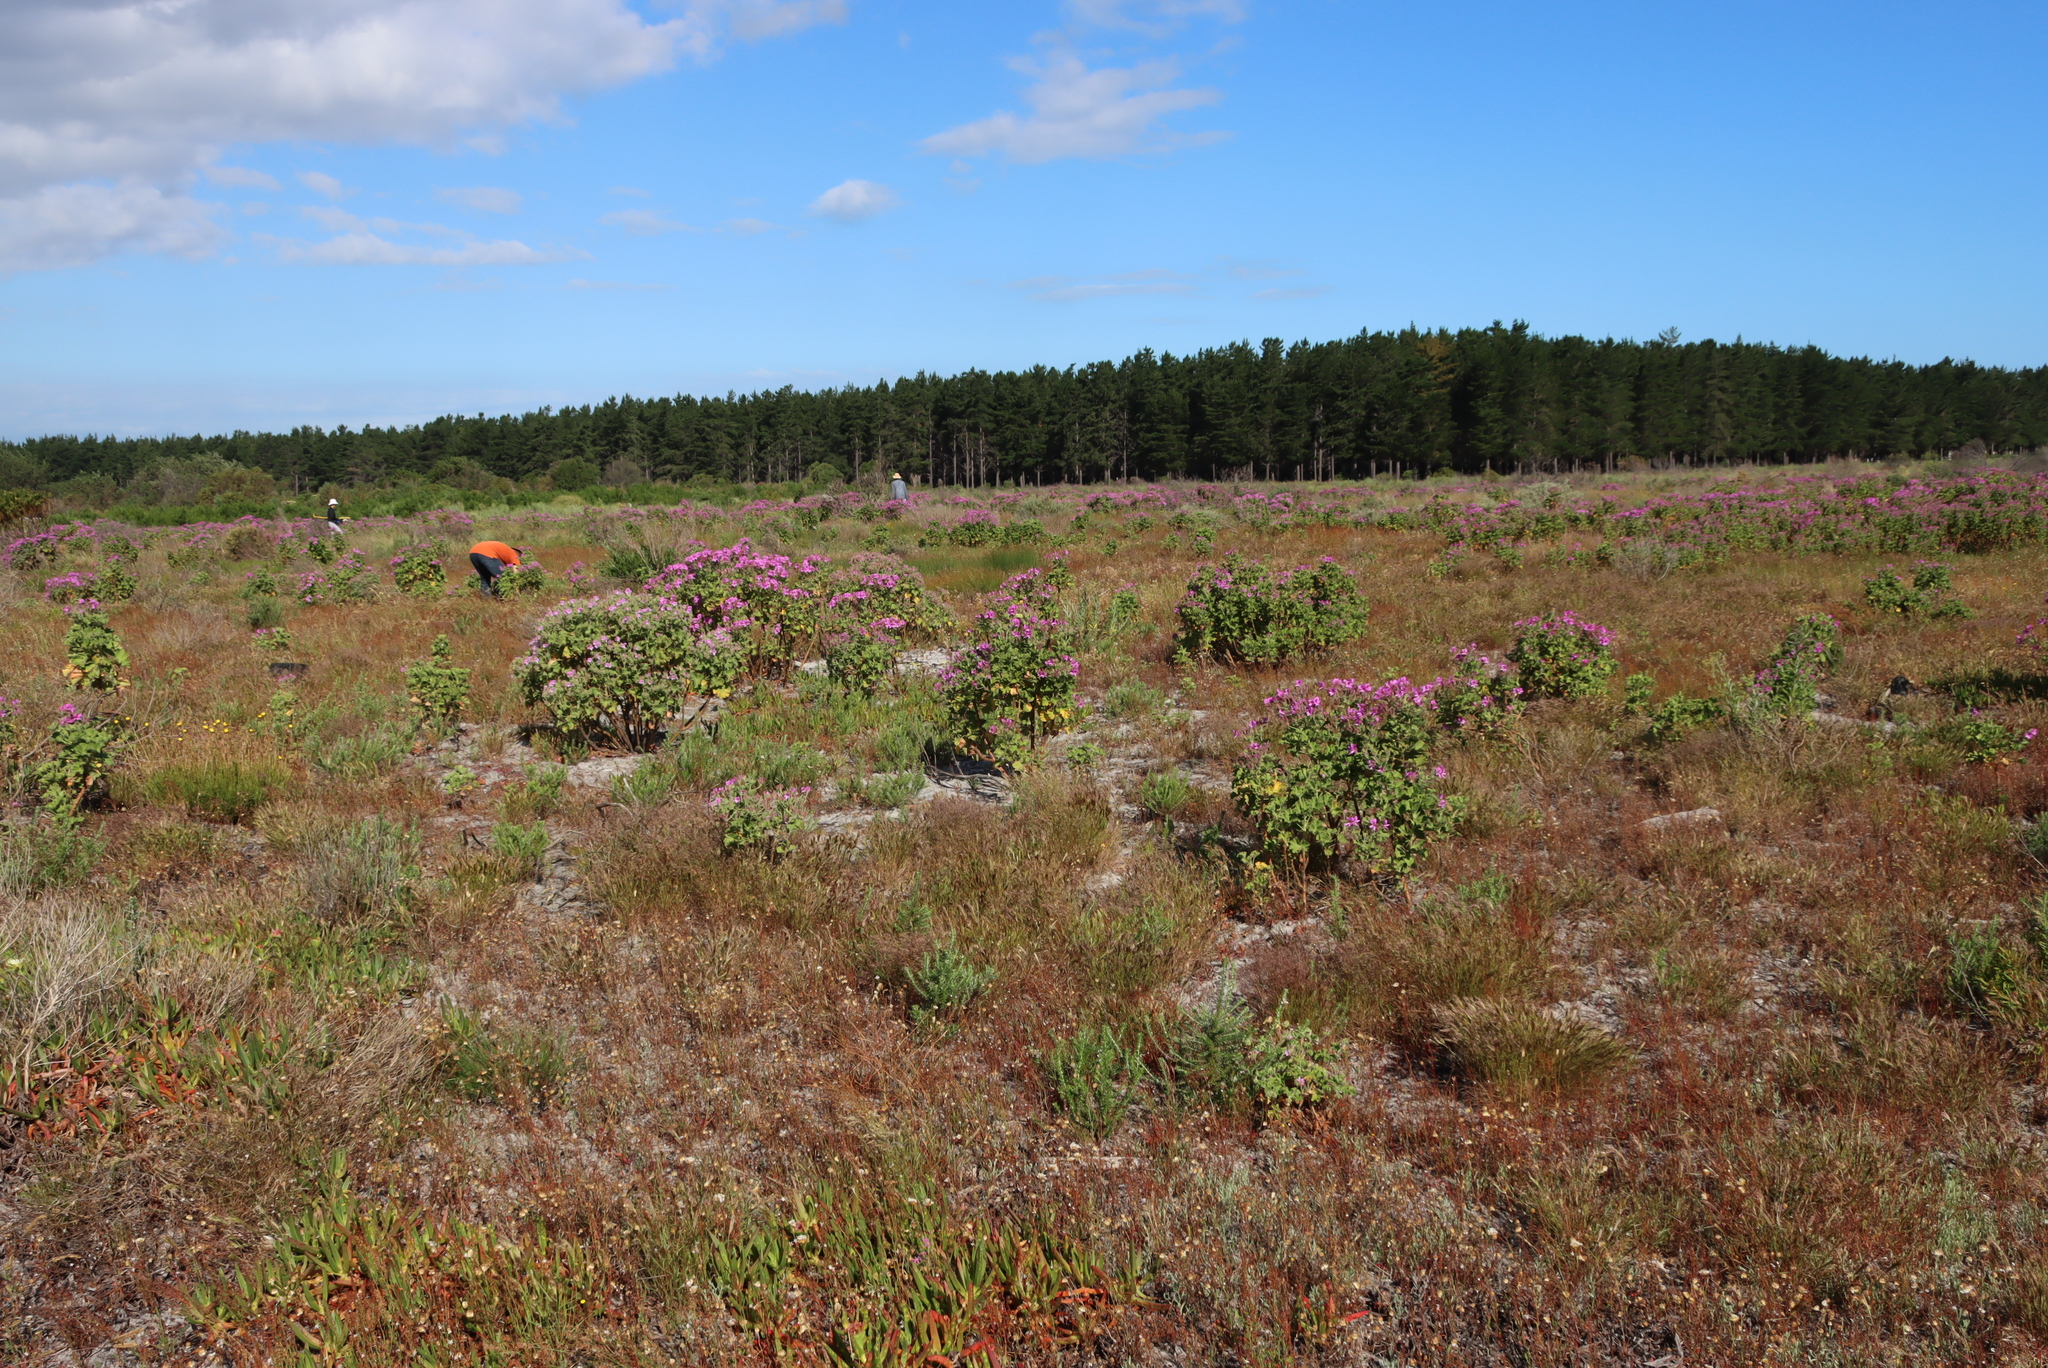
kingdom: Plantae
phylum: Tracheophyta
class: Magnoliopsida
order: Geraniales
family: Geraniaceae
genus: Pelargonium
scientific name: Pelargonium cucullatum
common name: Tree pelargonium
